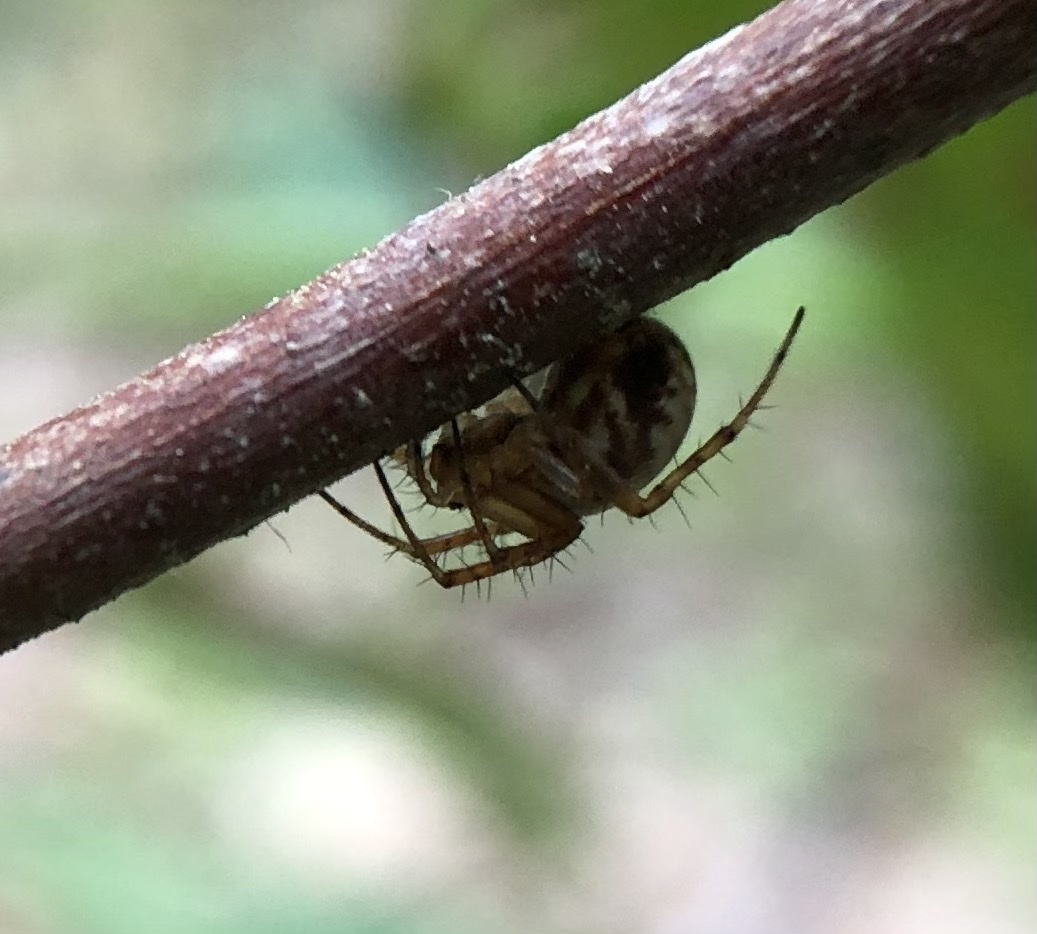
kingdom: Animalia
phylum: Arthropoda
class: Arachnida
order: Araneae
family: Araneidae
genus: Mangora
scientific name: Mangora placida
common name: Tuft-legged orbweaver
